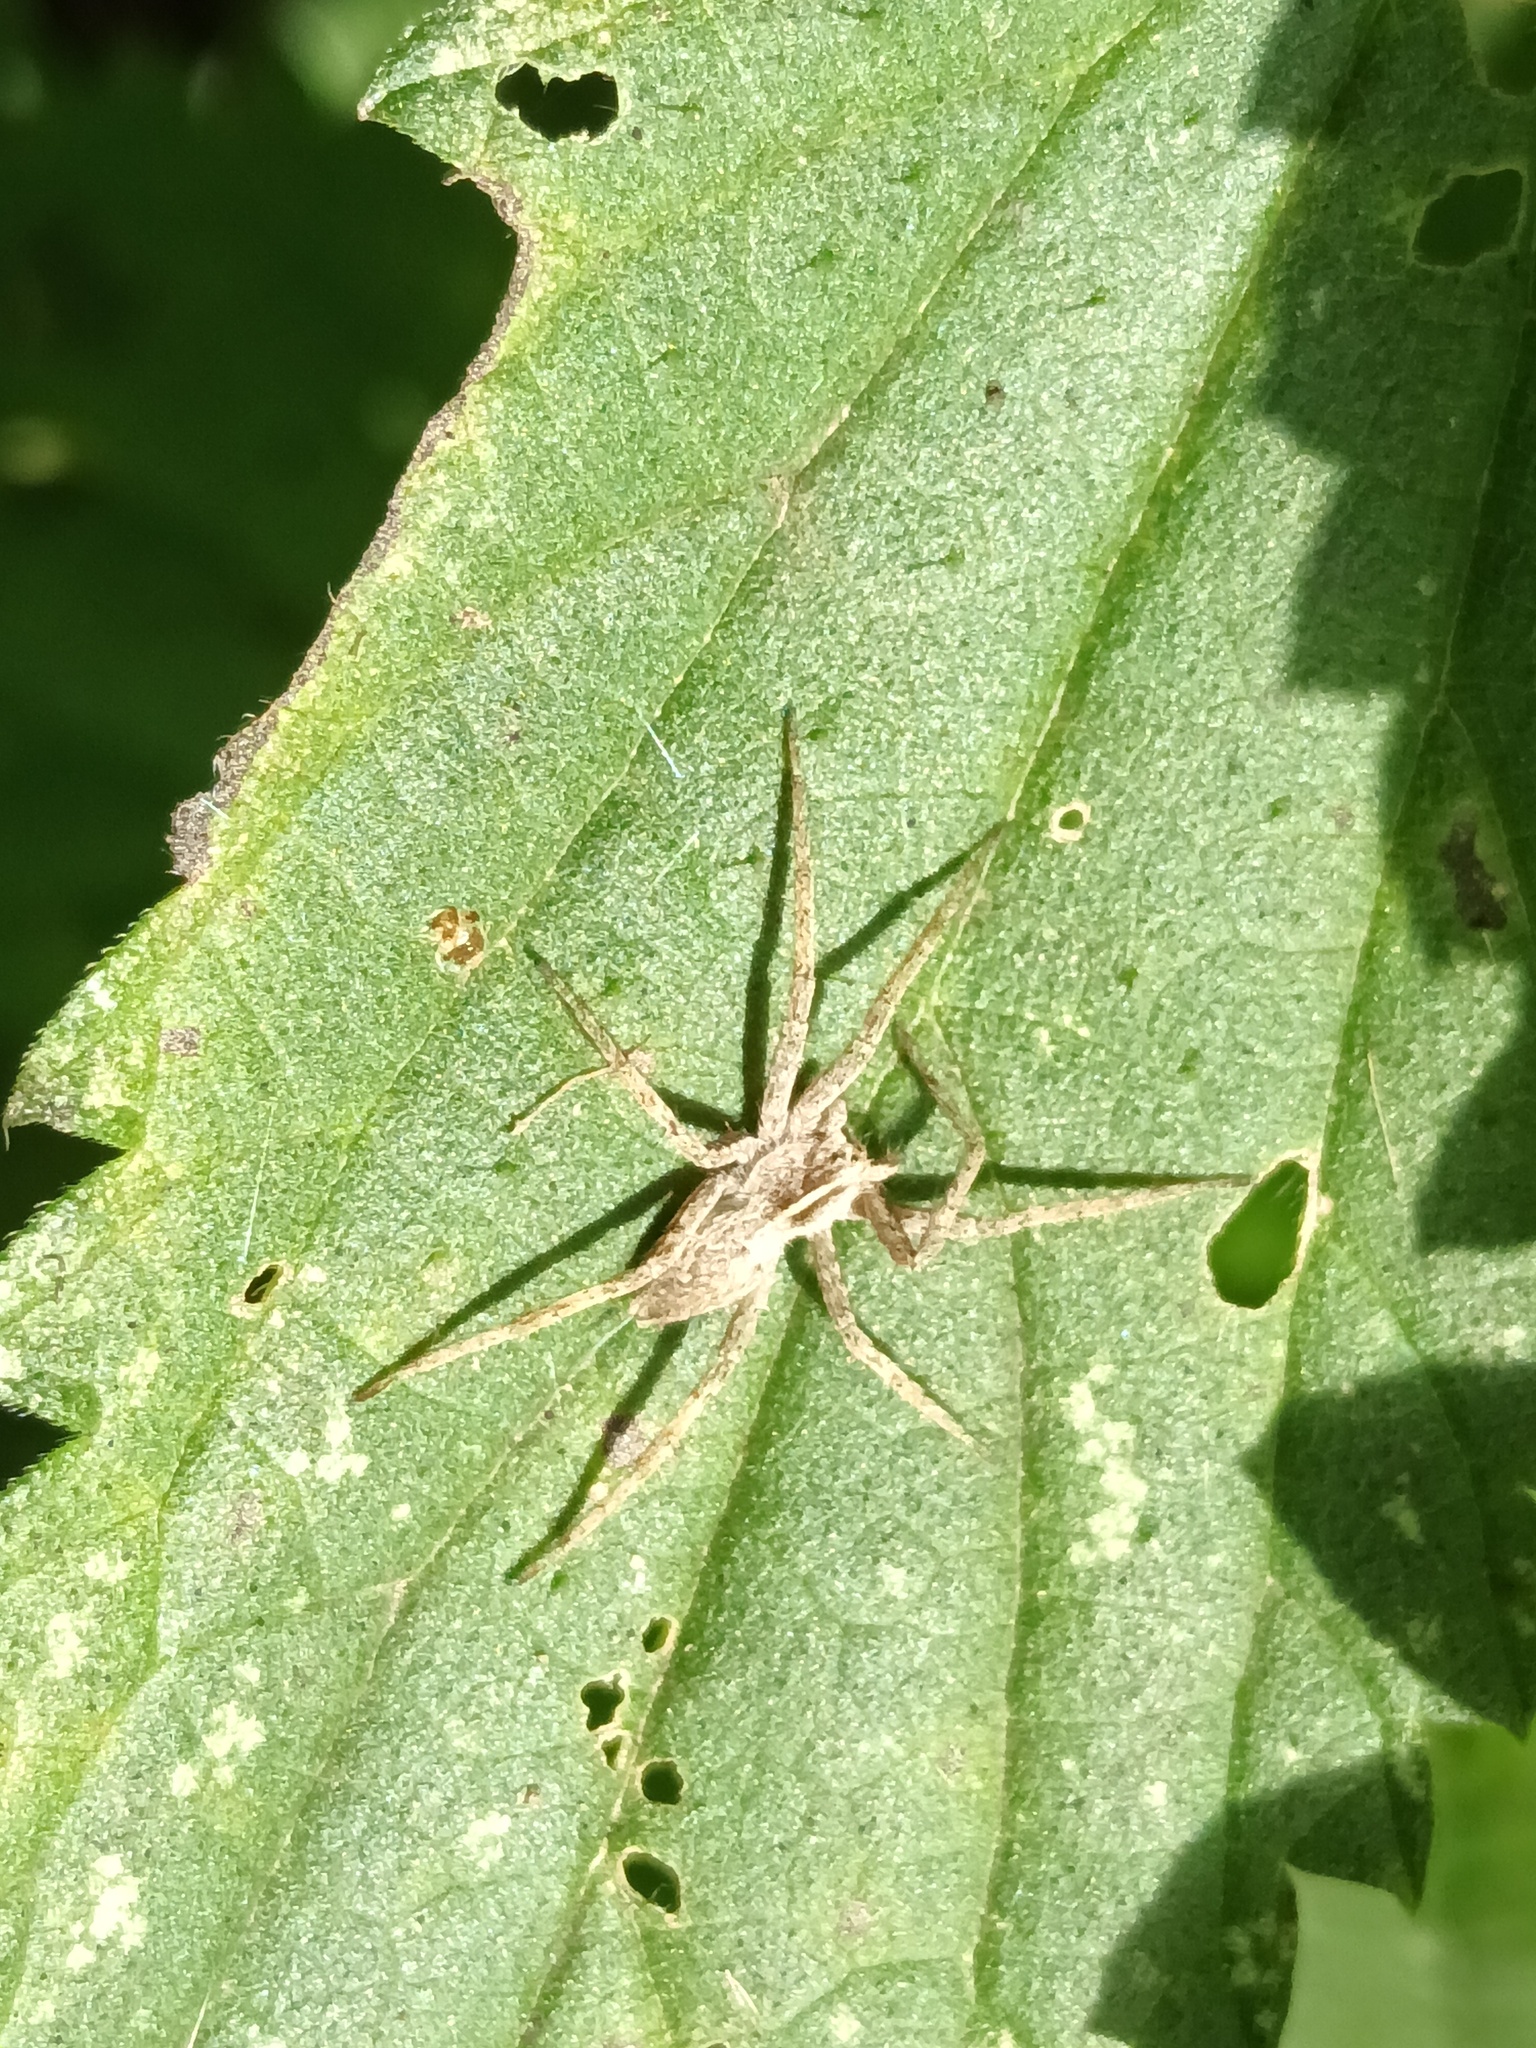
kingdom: Animalia
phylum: Arthropoda
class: Arachnida
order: Araneae
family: Pisauridae
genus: Pisaura
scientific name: Pisaura mirabilis
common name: Tent spider
